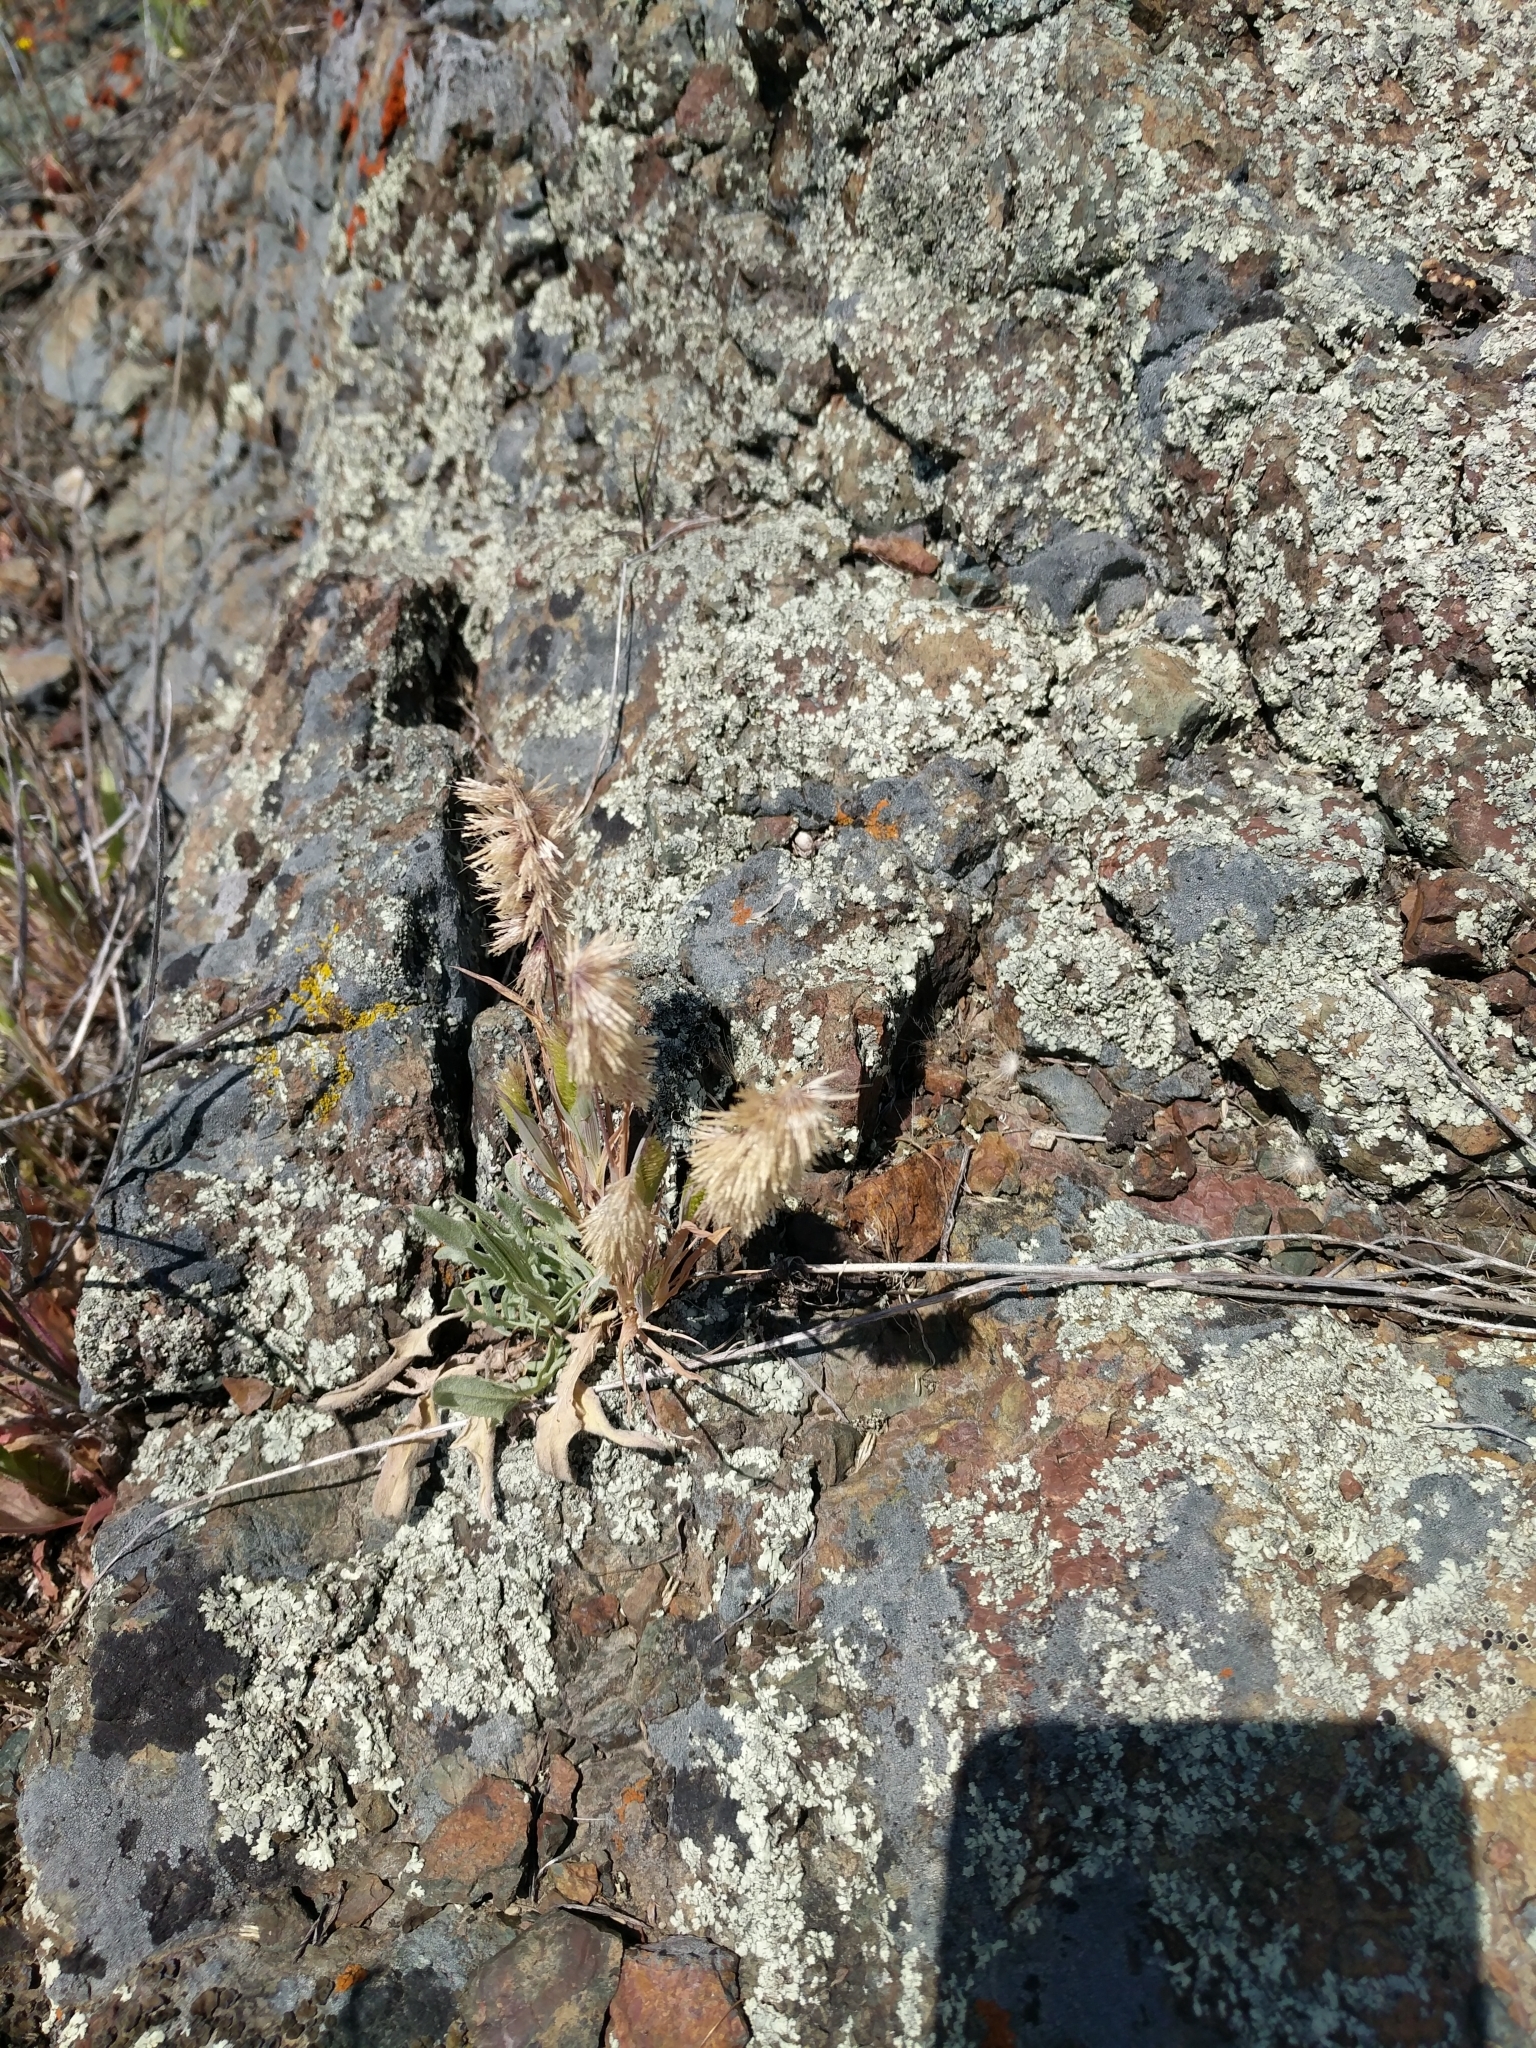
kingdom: Plantae
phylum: Tracheophyta
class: Liliopsida
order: Poales
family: Poaceae
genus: Lamarckia
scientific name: Lamarckia aurea
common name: Golden dog's-tail
